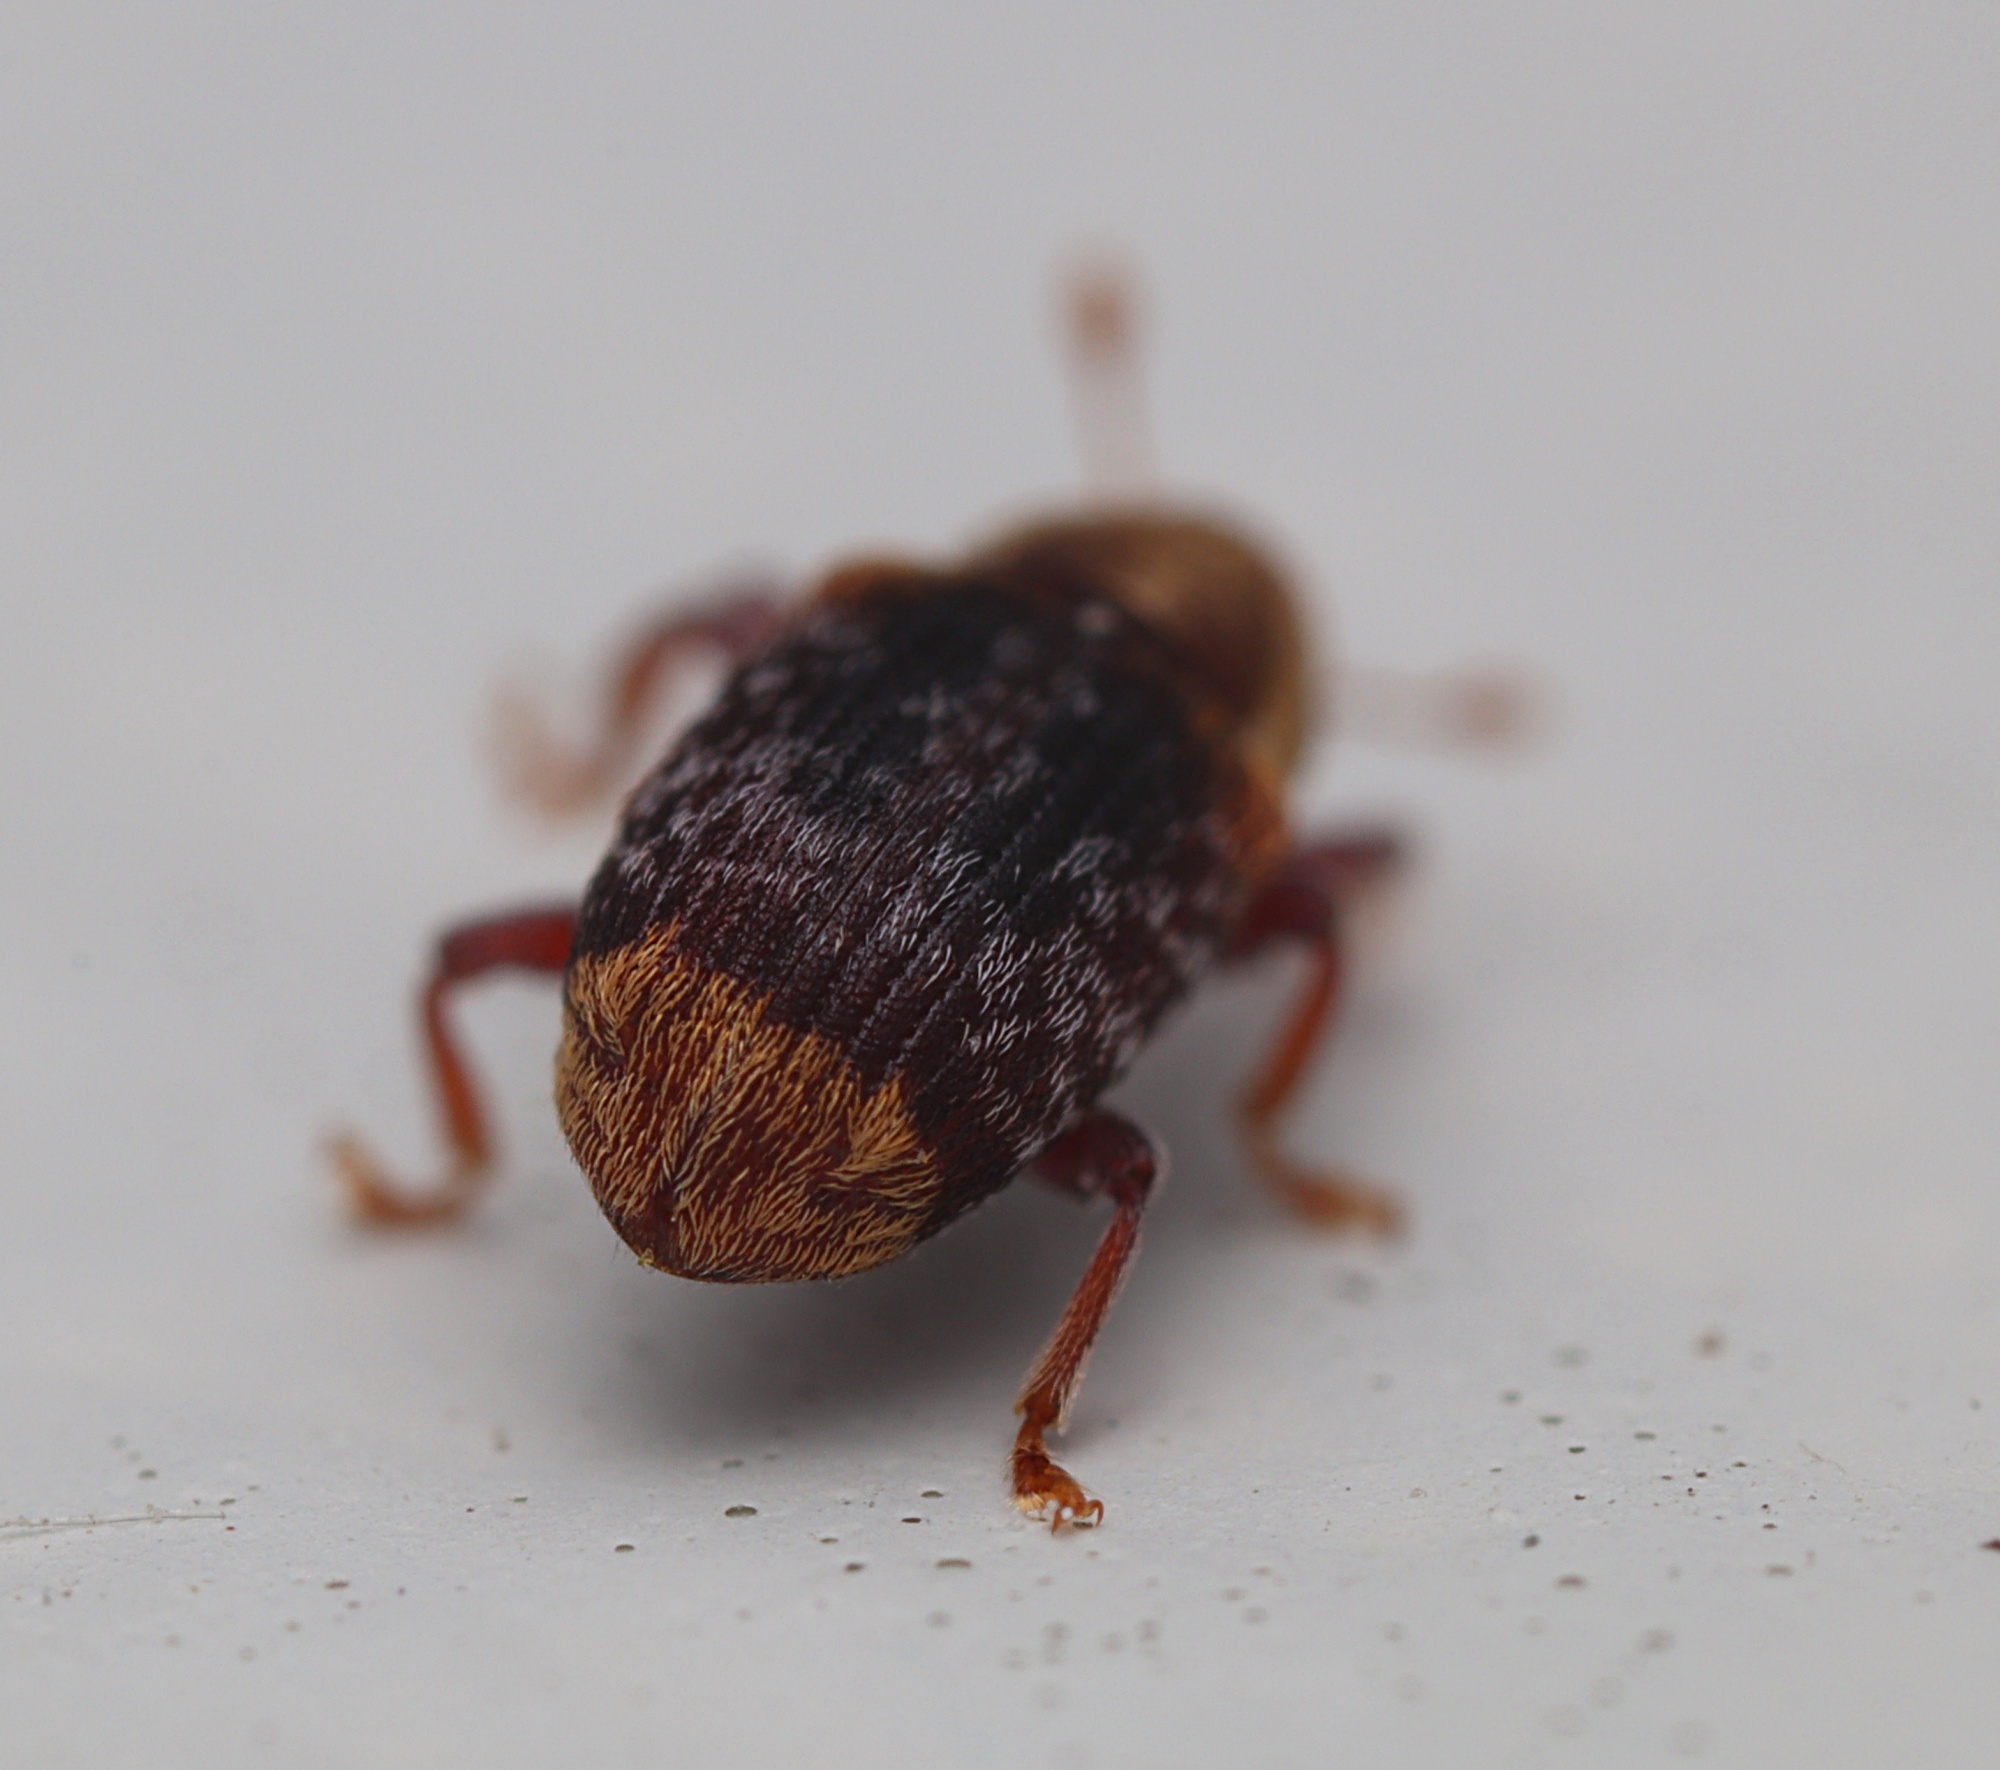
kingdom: Animalia
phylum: Arthropoda
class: Insecta
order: Coleoptera
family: Curculionidae
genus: Peristoreus
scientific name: Peristoreus flavitarsis
